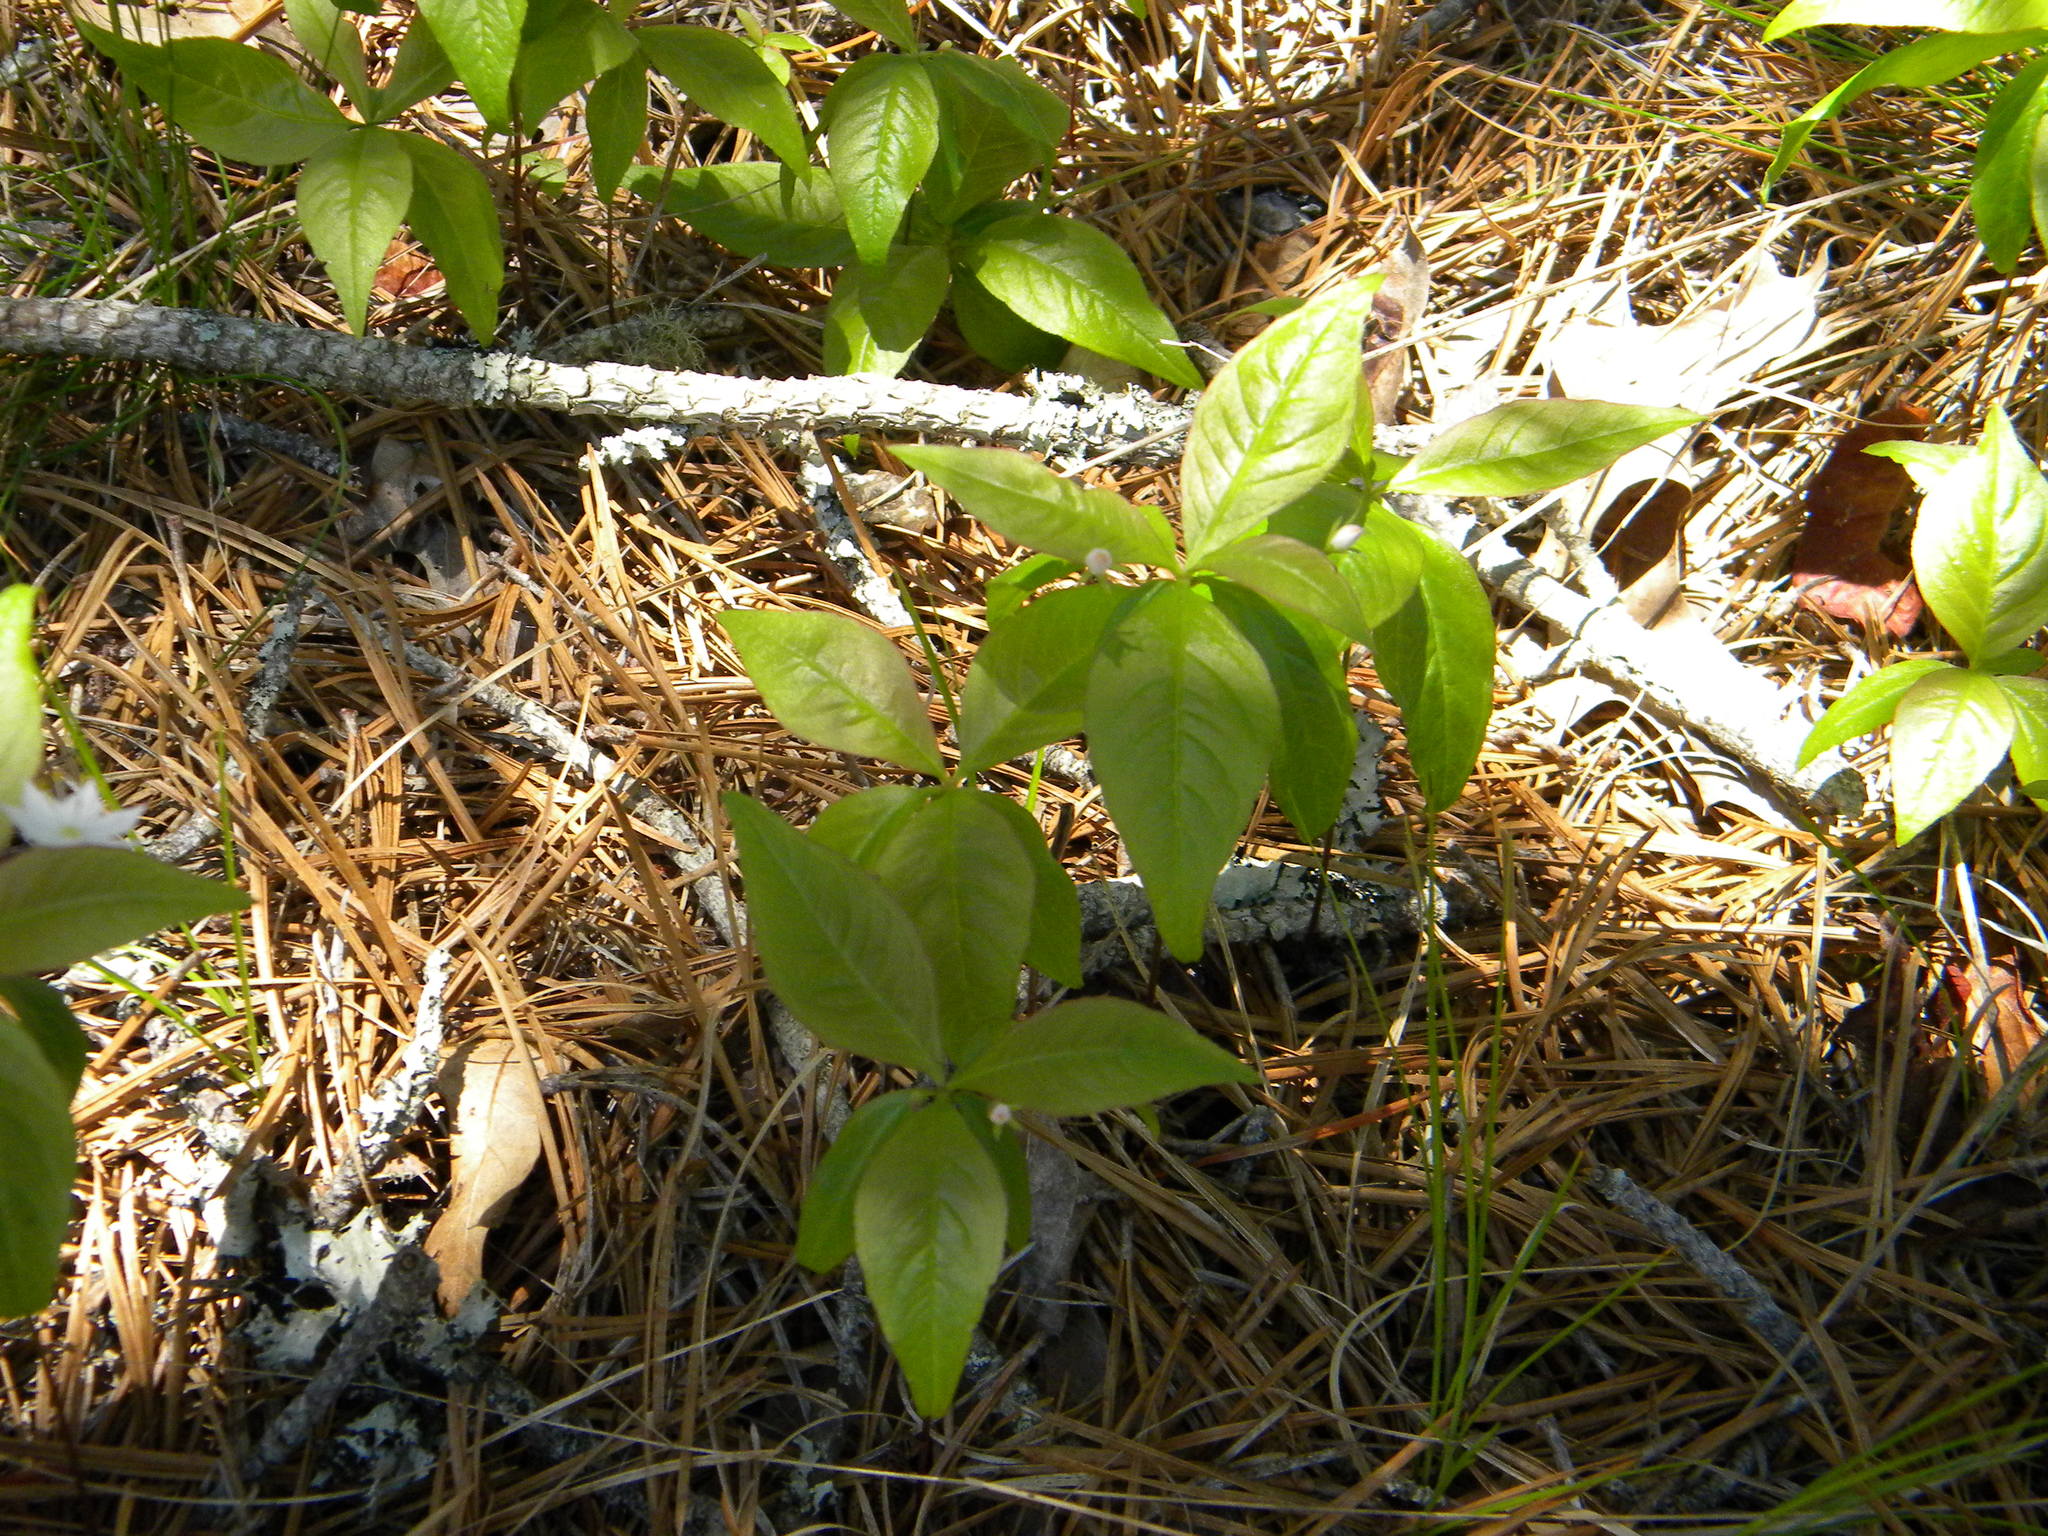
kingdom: Plantae
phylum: Tracheophyta
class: Magnoliopsida
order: Ericales
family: Primulaceae
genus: Lysimachia
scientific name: Lysimachia borealis
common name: American starflower
